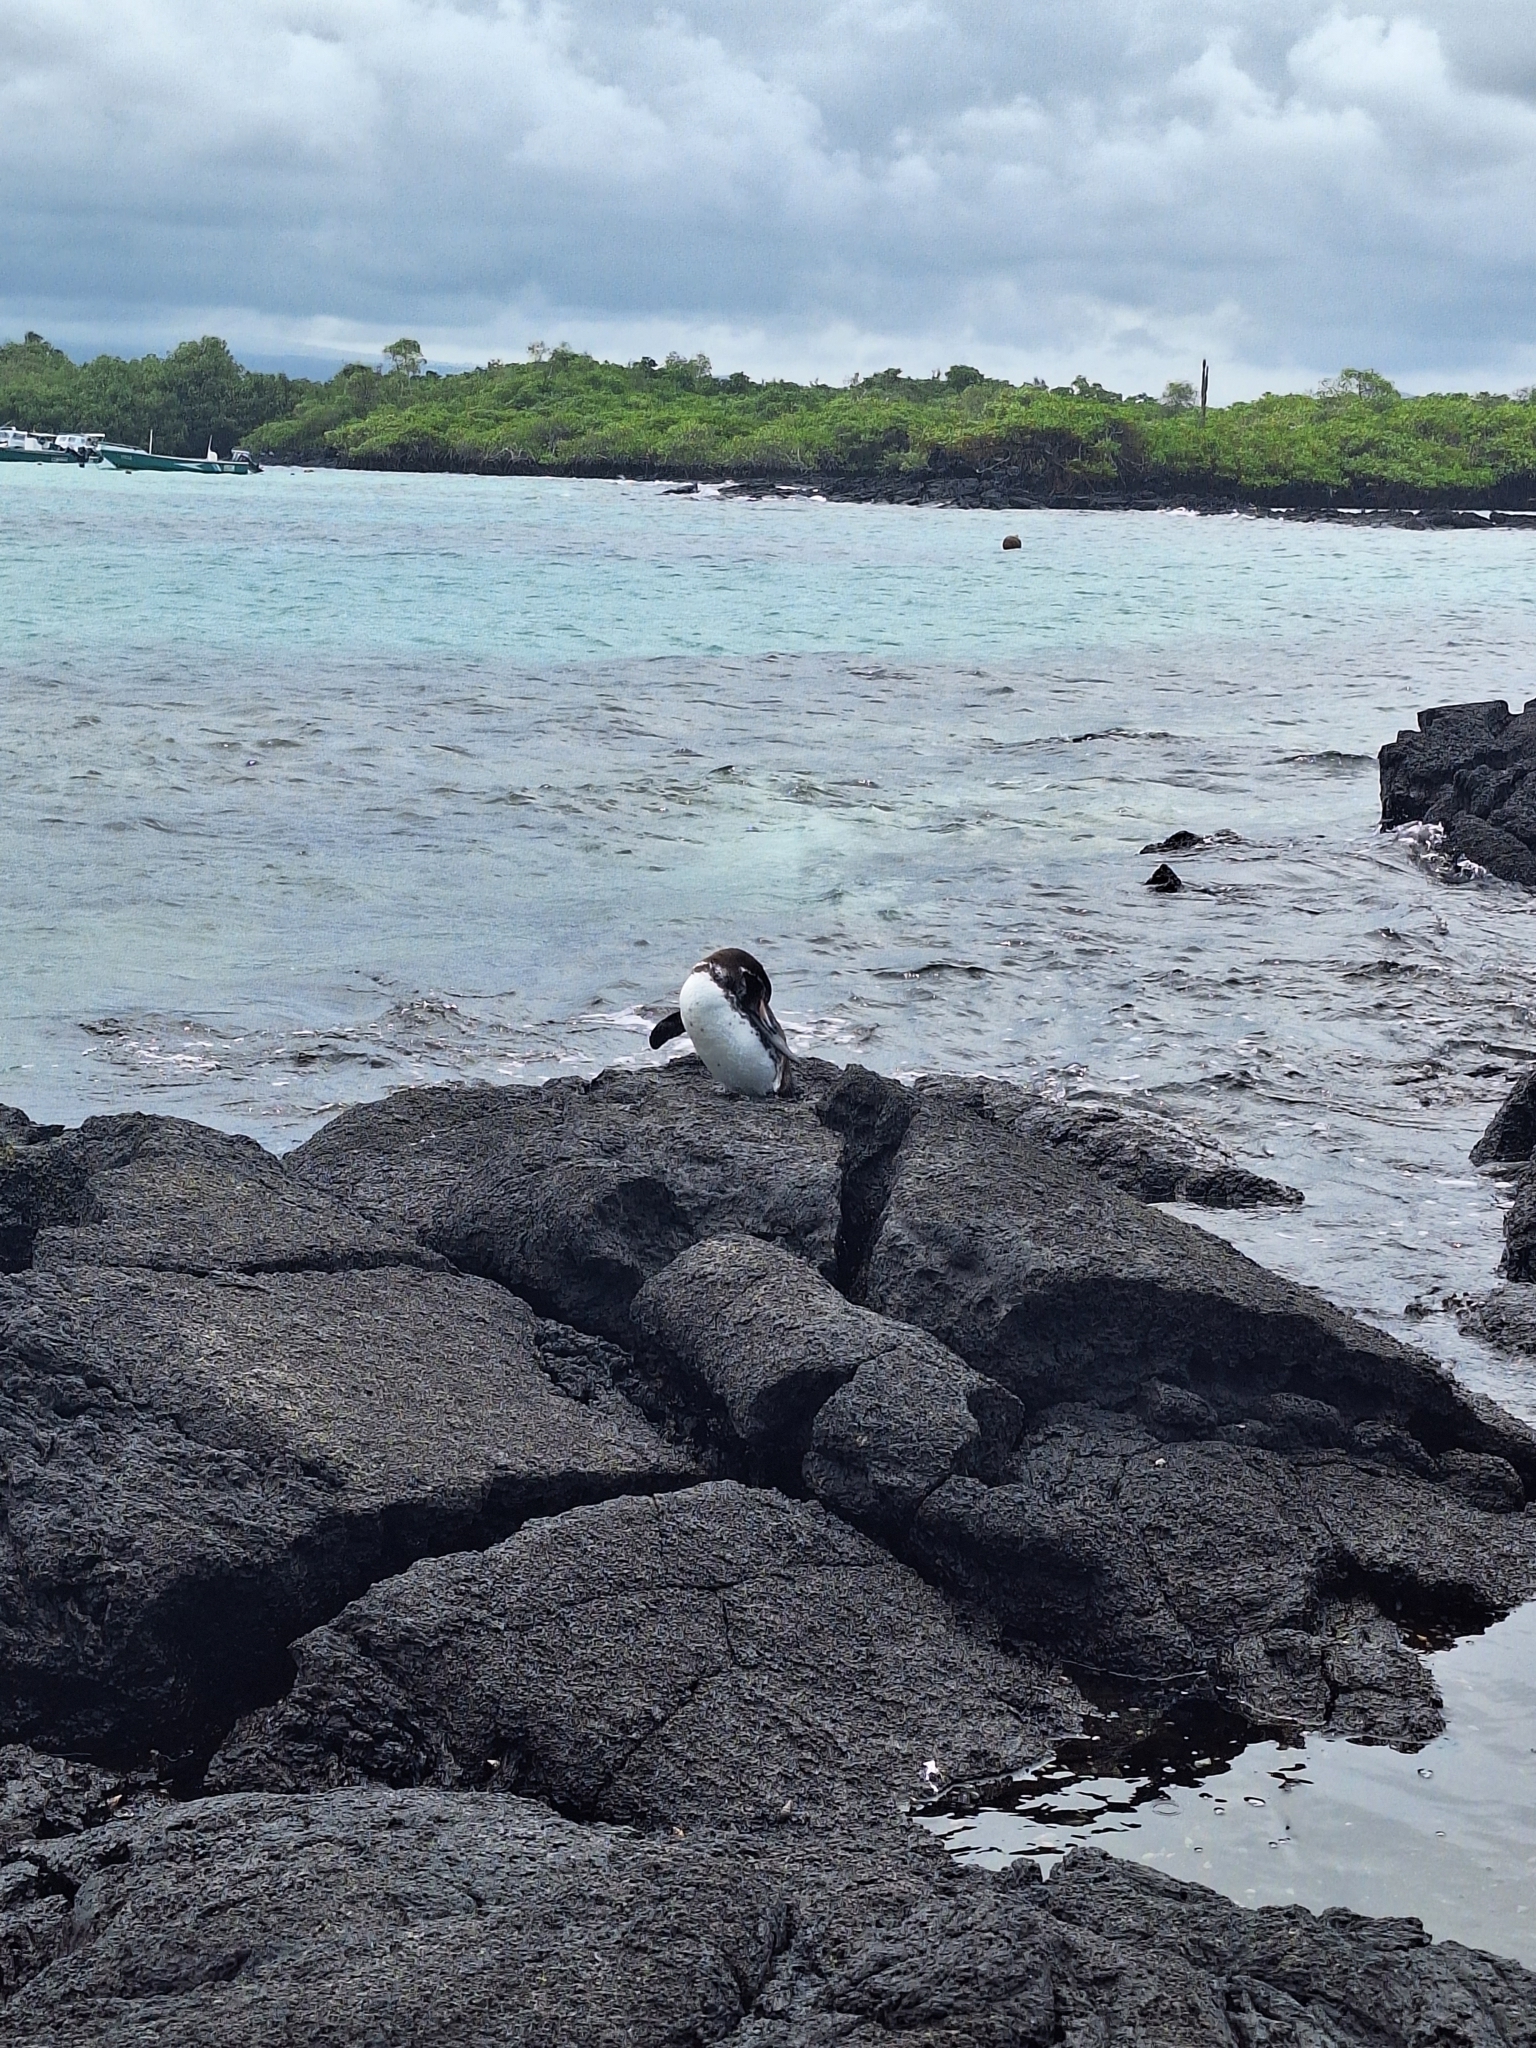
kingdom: Animalia
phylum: Chordata
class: Aves
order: Sphenisciformes
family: Spheniscidae
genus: Spheniscus
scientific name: Spheniscus mendiculus
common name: Galapagos penguin
